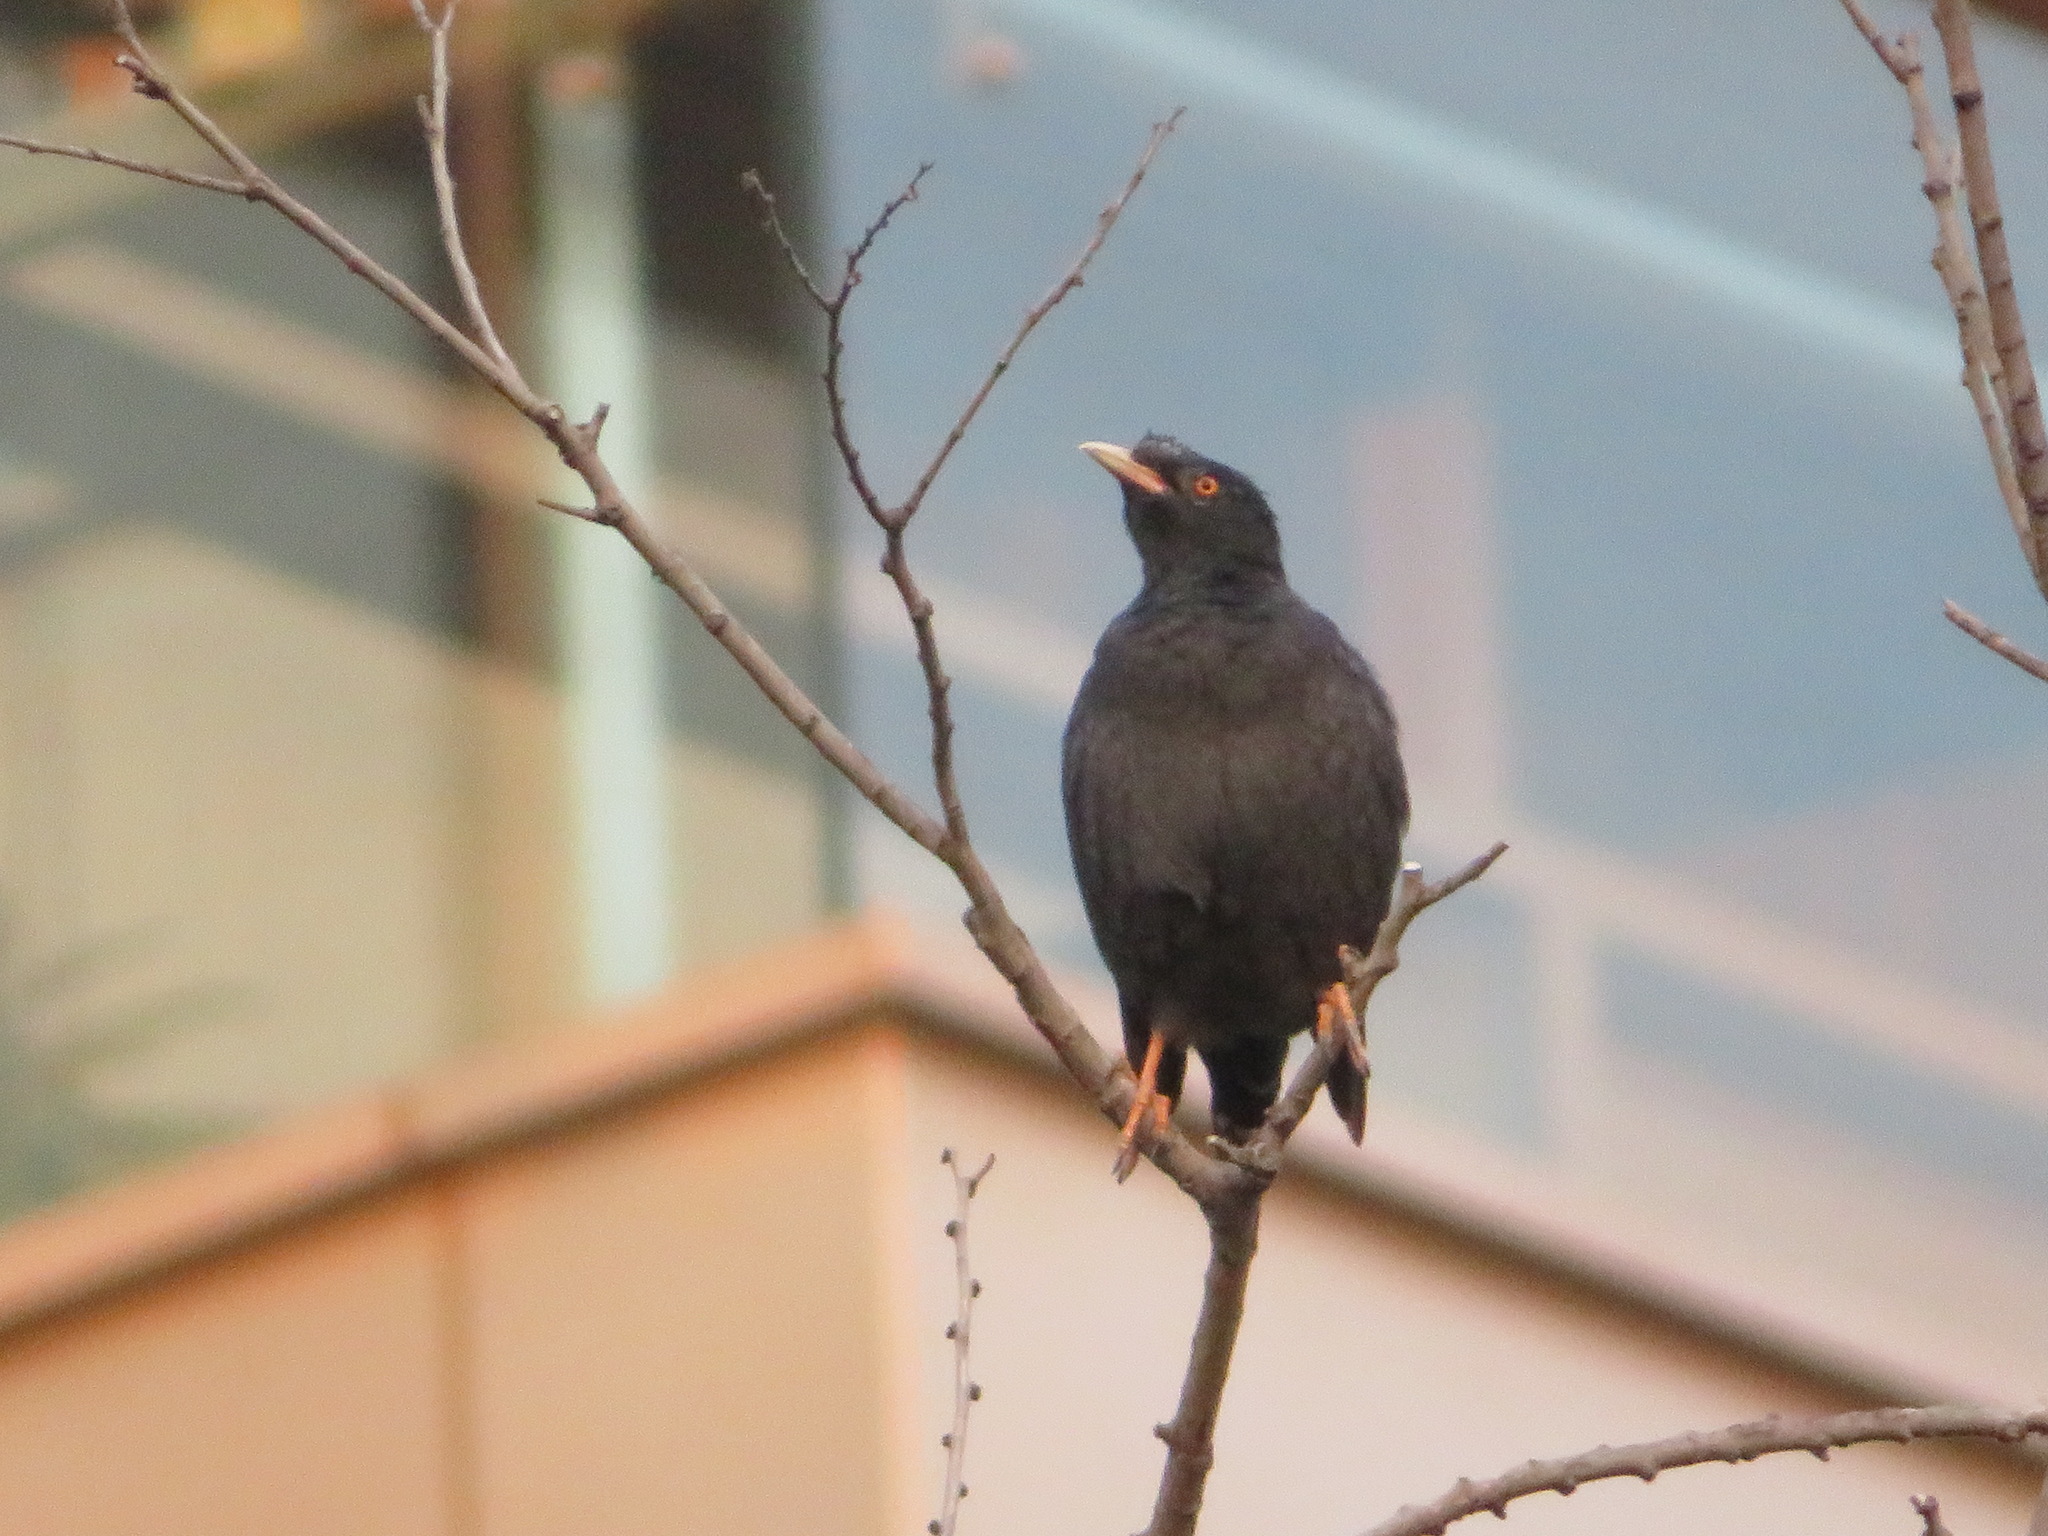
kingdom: Animalia
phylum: Chordata
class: Aves
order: Passeriformes
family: Sturnidae
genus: Acridotheres
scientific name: Acridotheres cristatellus
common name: Crested myna
